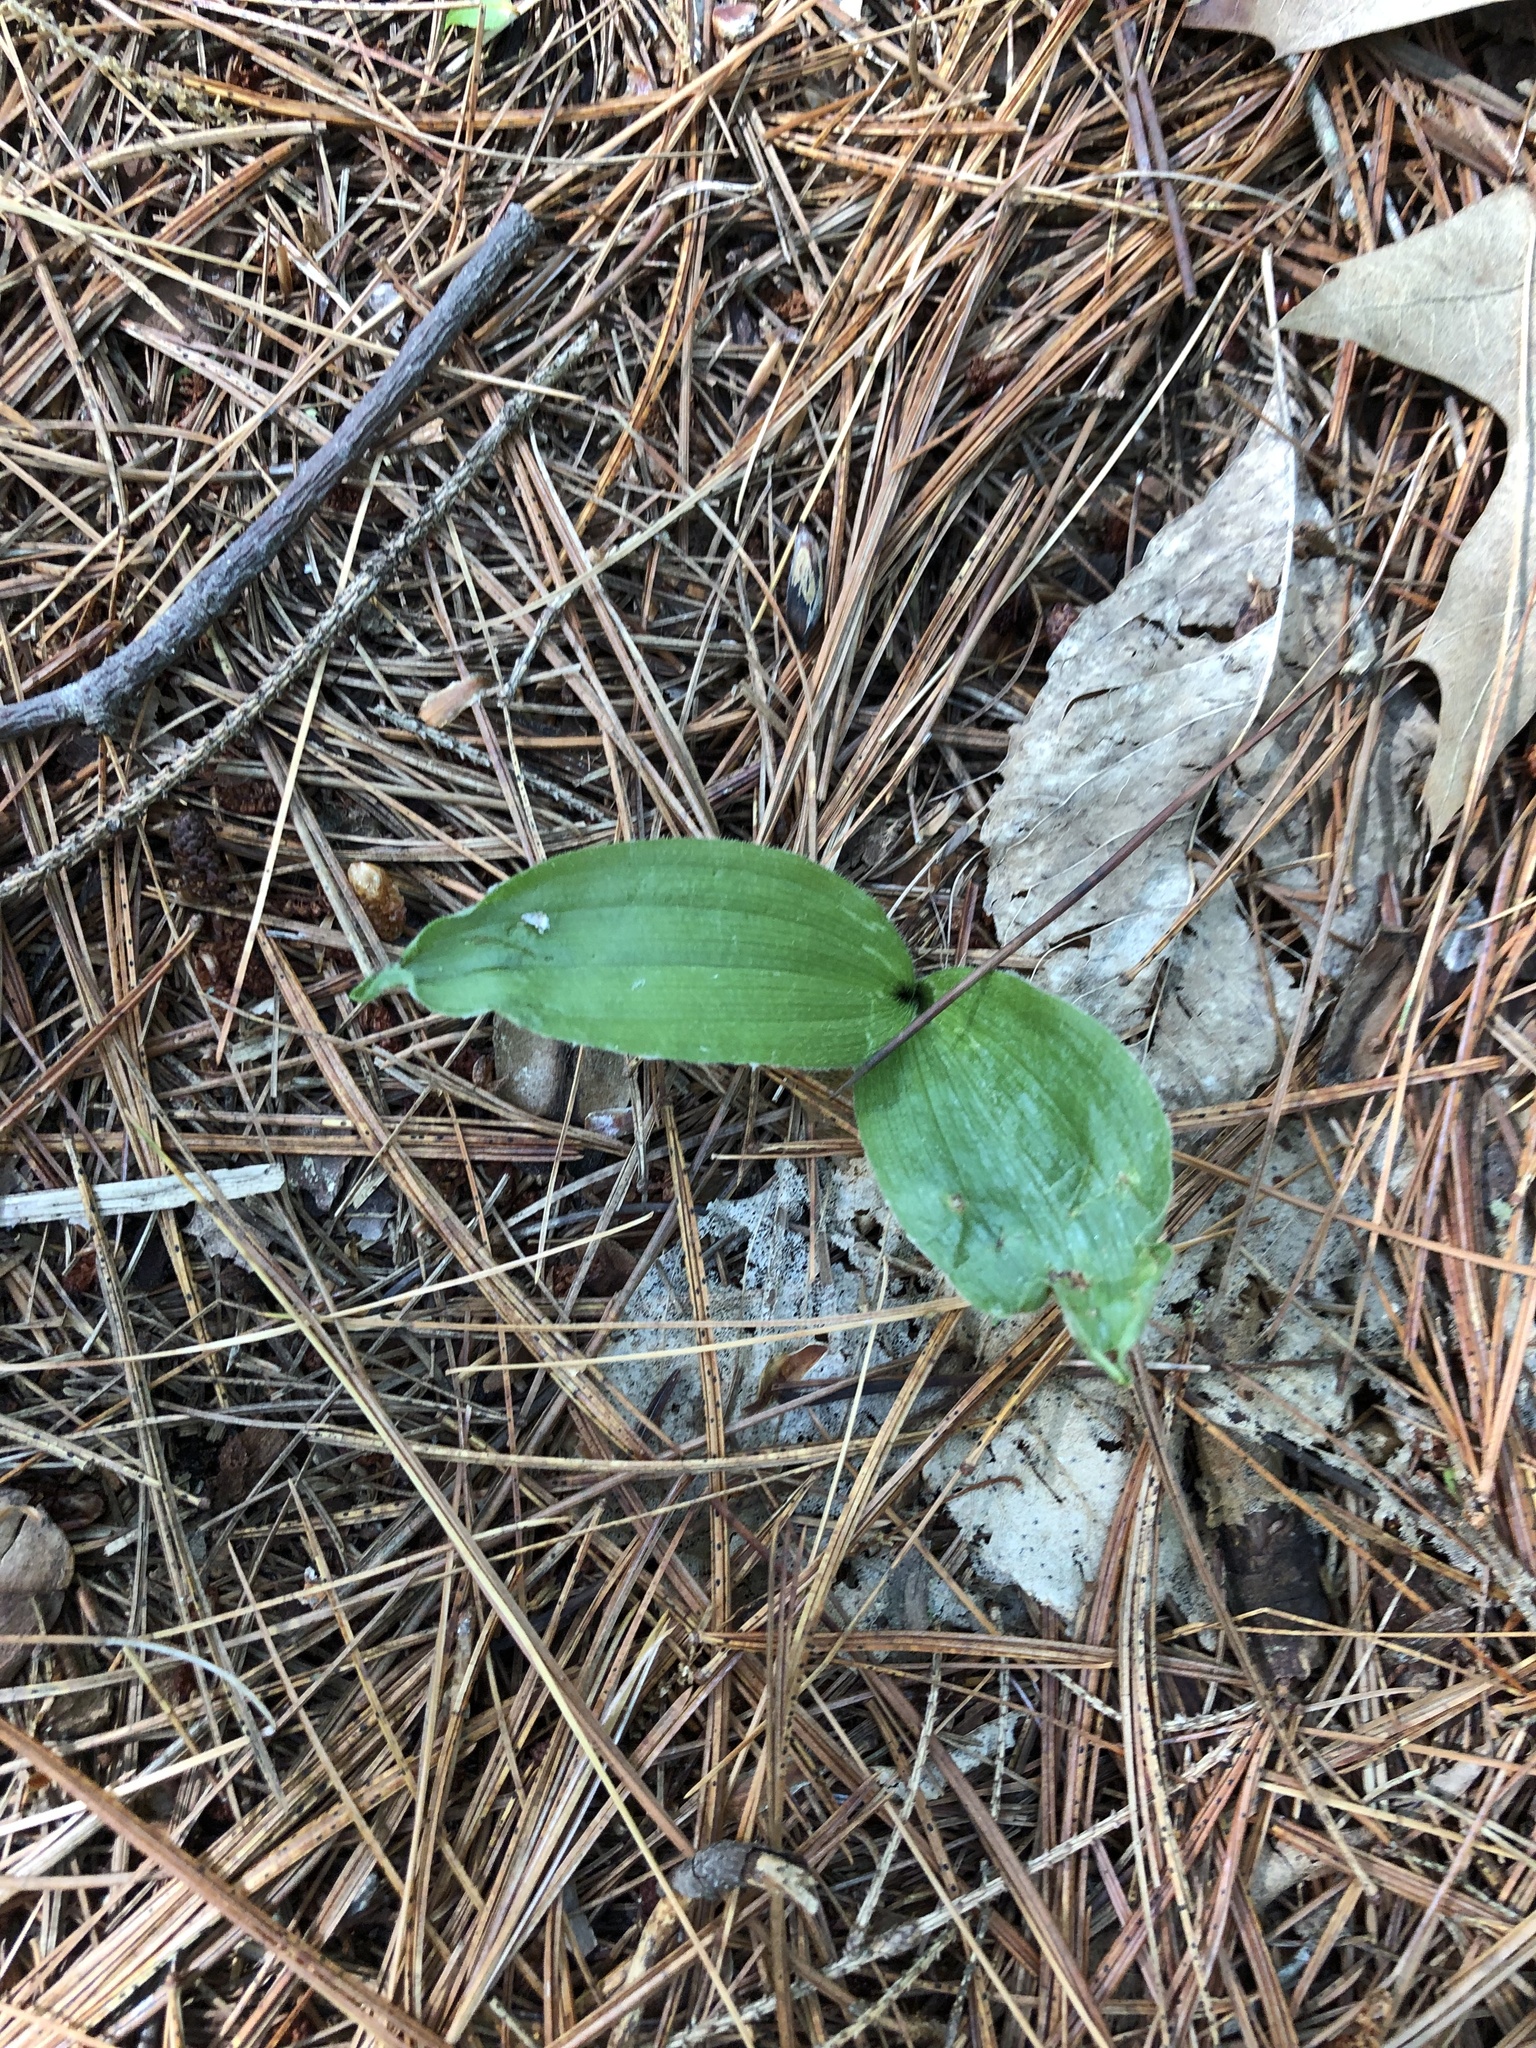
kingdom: Plantae
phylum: Tracheophyta
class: Liliopsida
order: Asparagales
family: Orchidaceae
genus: Cypripedium
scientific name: Cypripedium acaule
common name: Pink lady's-slipper
